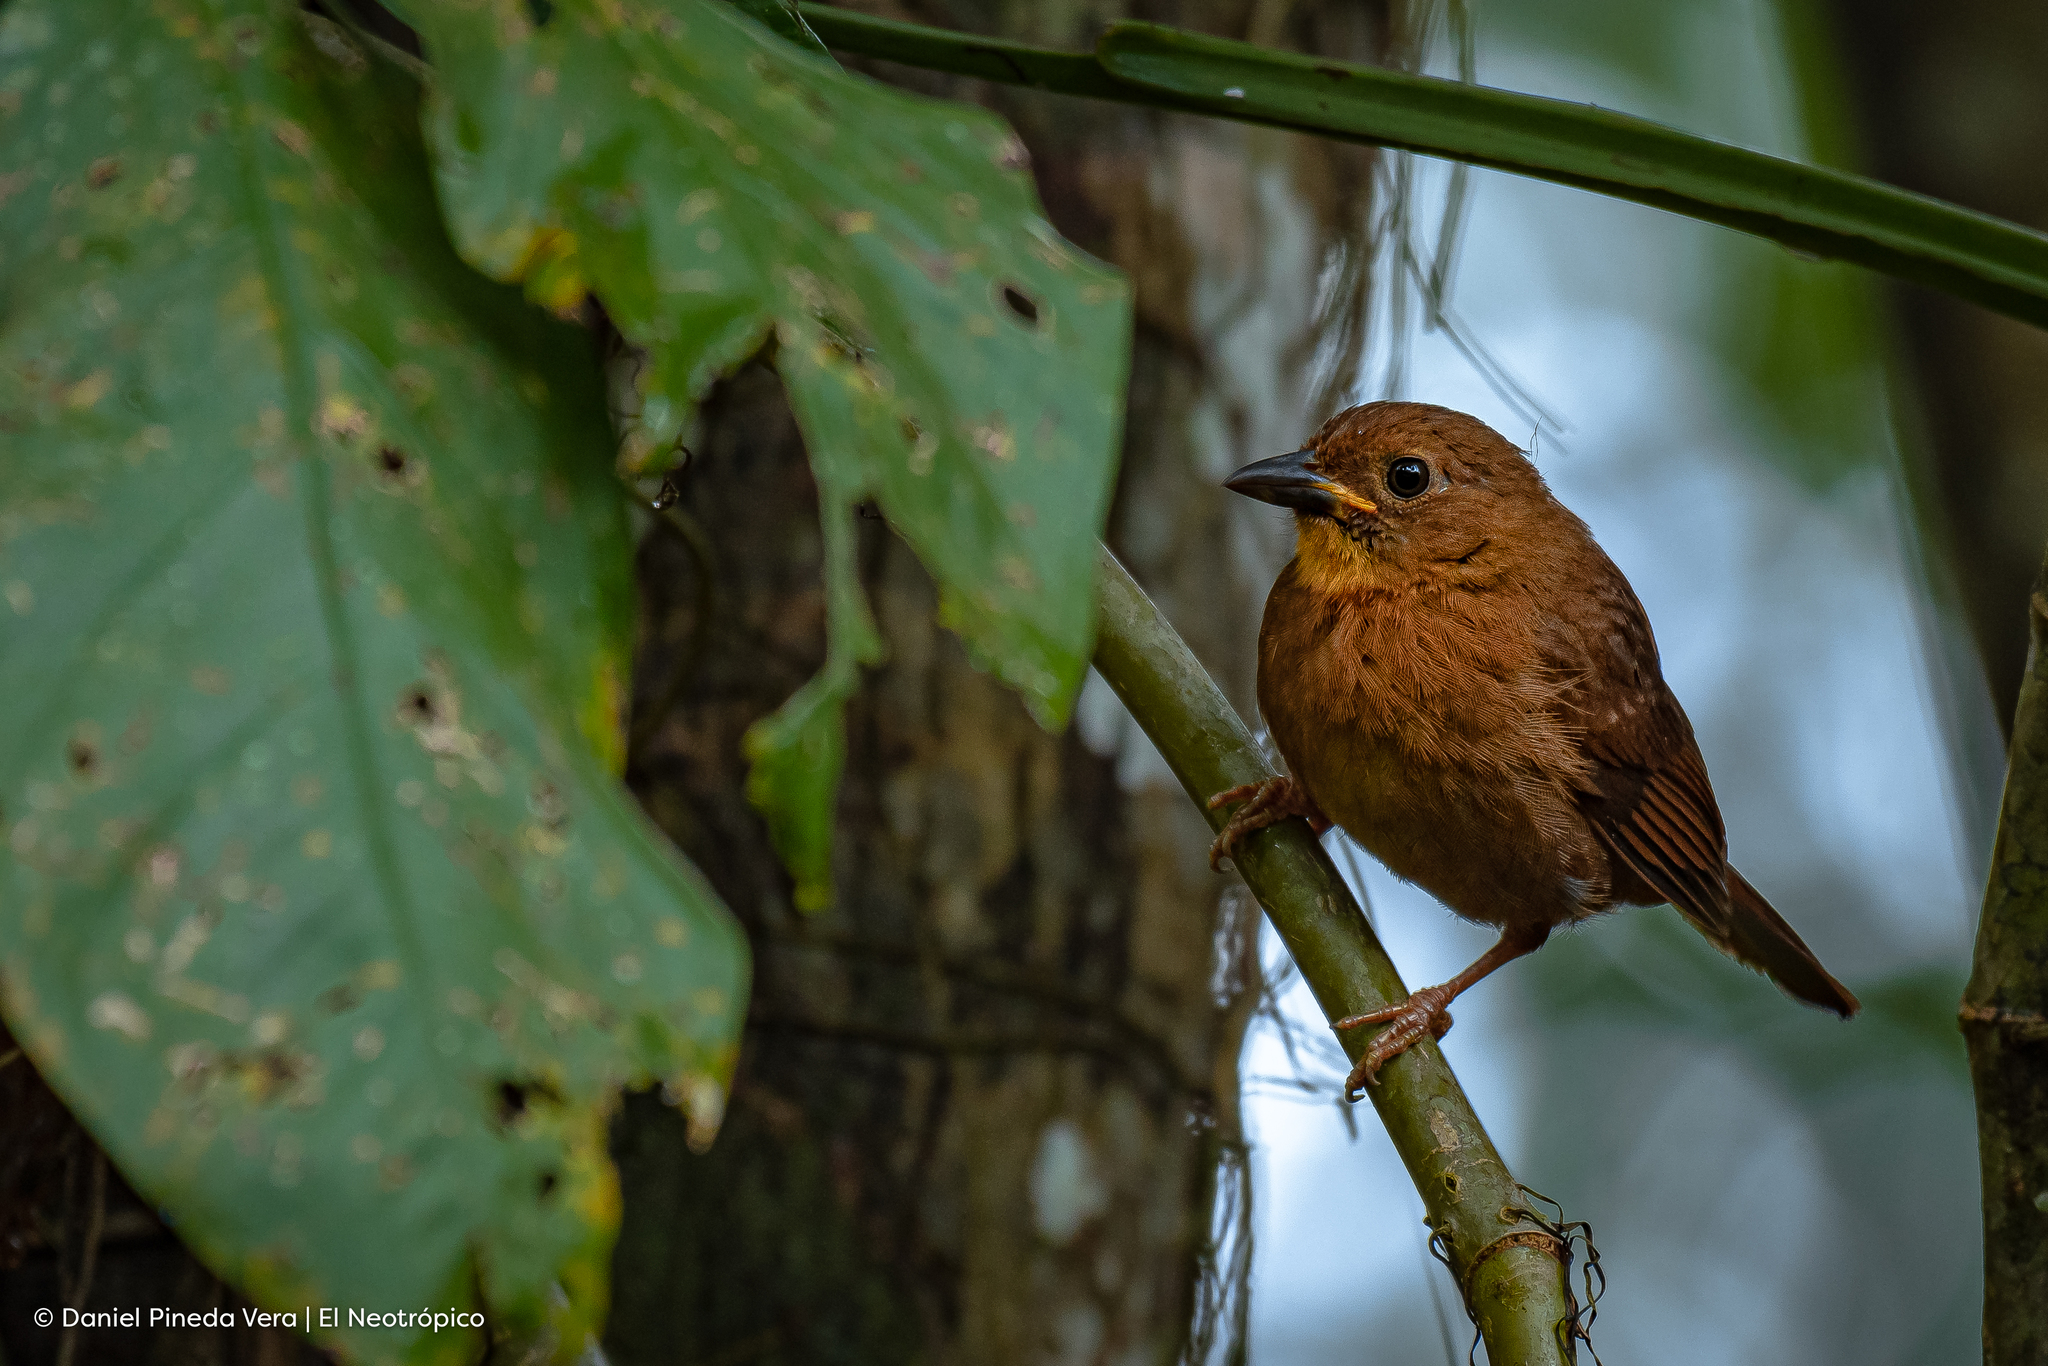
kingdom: Animalia
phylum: Chordata
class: Aves
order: Passeriformes
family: Cardinalidae
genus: Habia
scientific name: Habia fuscicauda
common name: Red-throated ant-tanager
